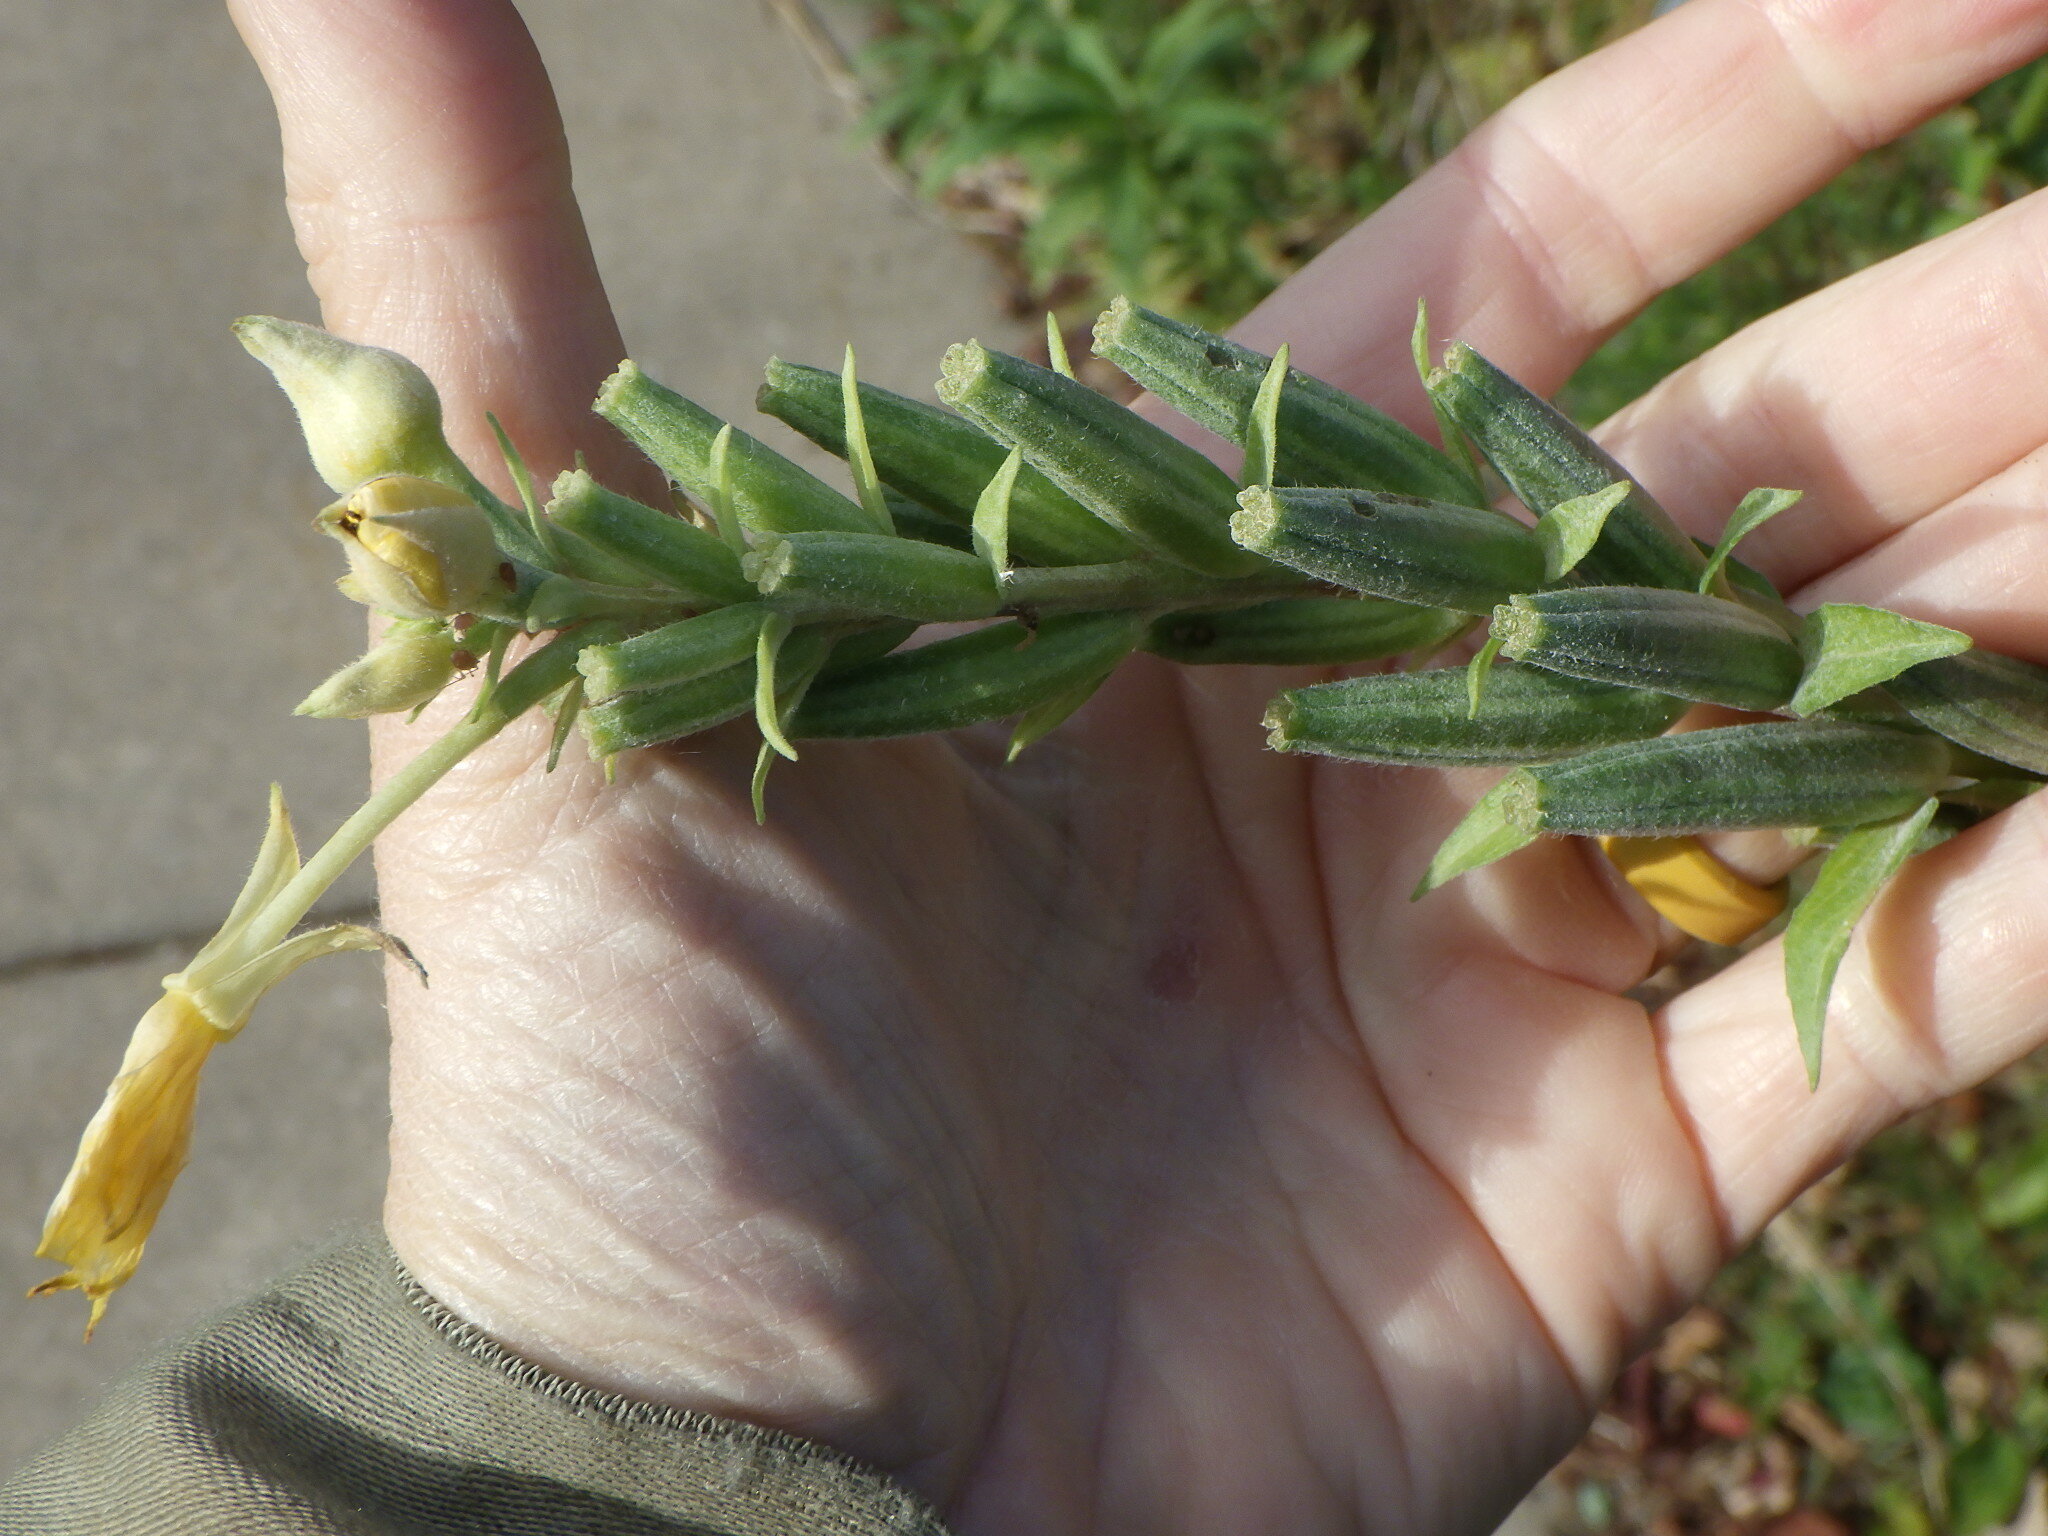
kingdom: Plantae
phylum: Tracheophyta
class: Magnoliopsida
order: Myrtales
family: Onagraceae
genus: Oenothera
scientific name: Oenothera biennis
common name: Common evening-primrose
